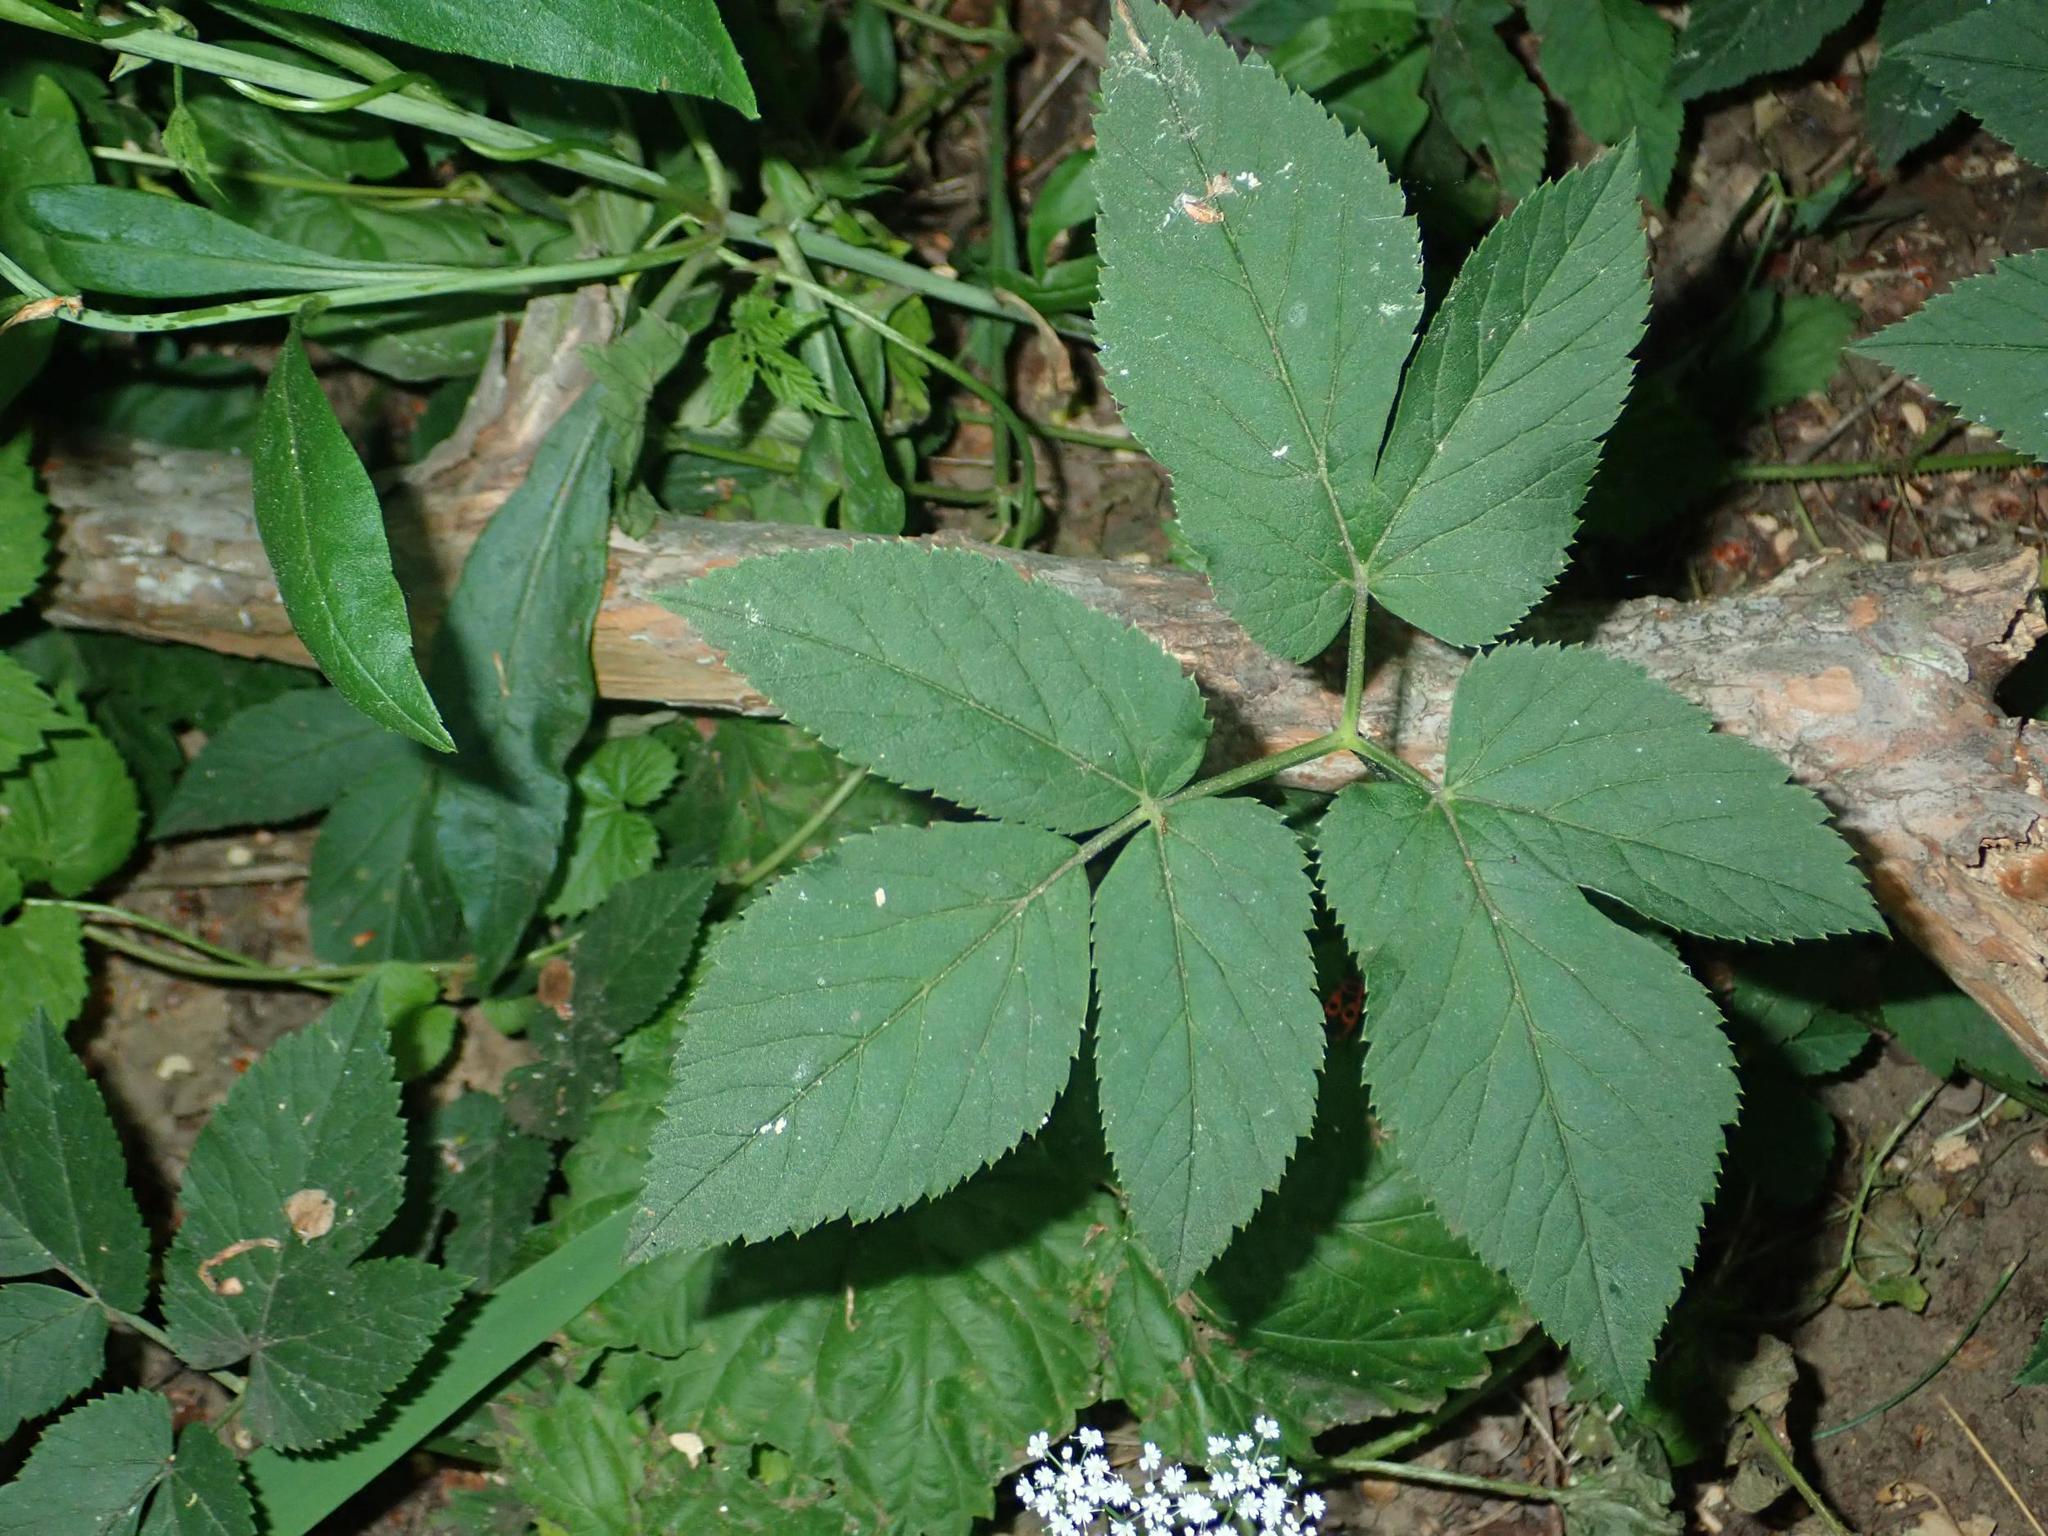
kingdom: Plantae
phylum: Tracheophyta
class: Magnoliopsida
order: Apiales
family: Apiaceae
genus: Aegopodium
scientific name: Aegopodium podagraria
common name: Ground-elder
